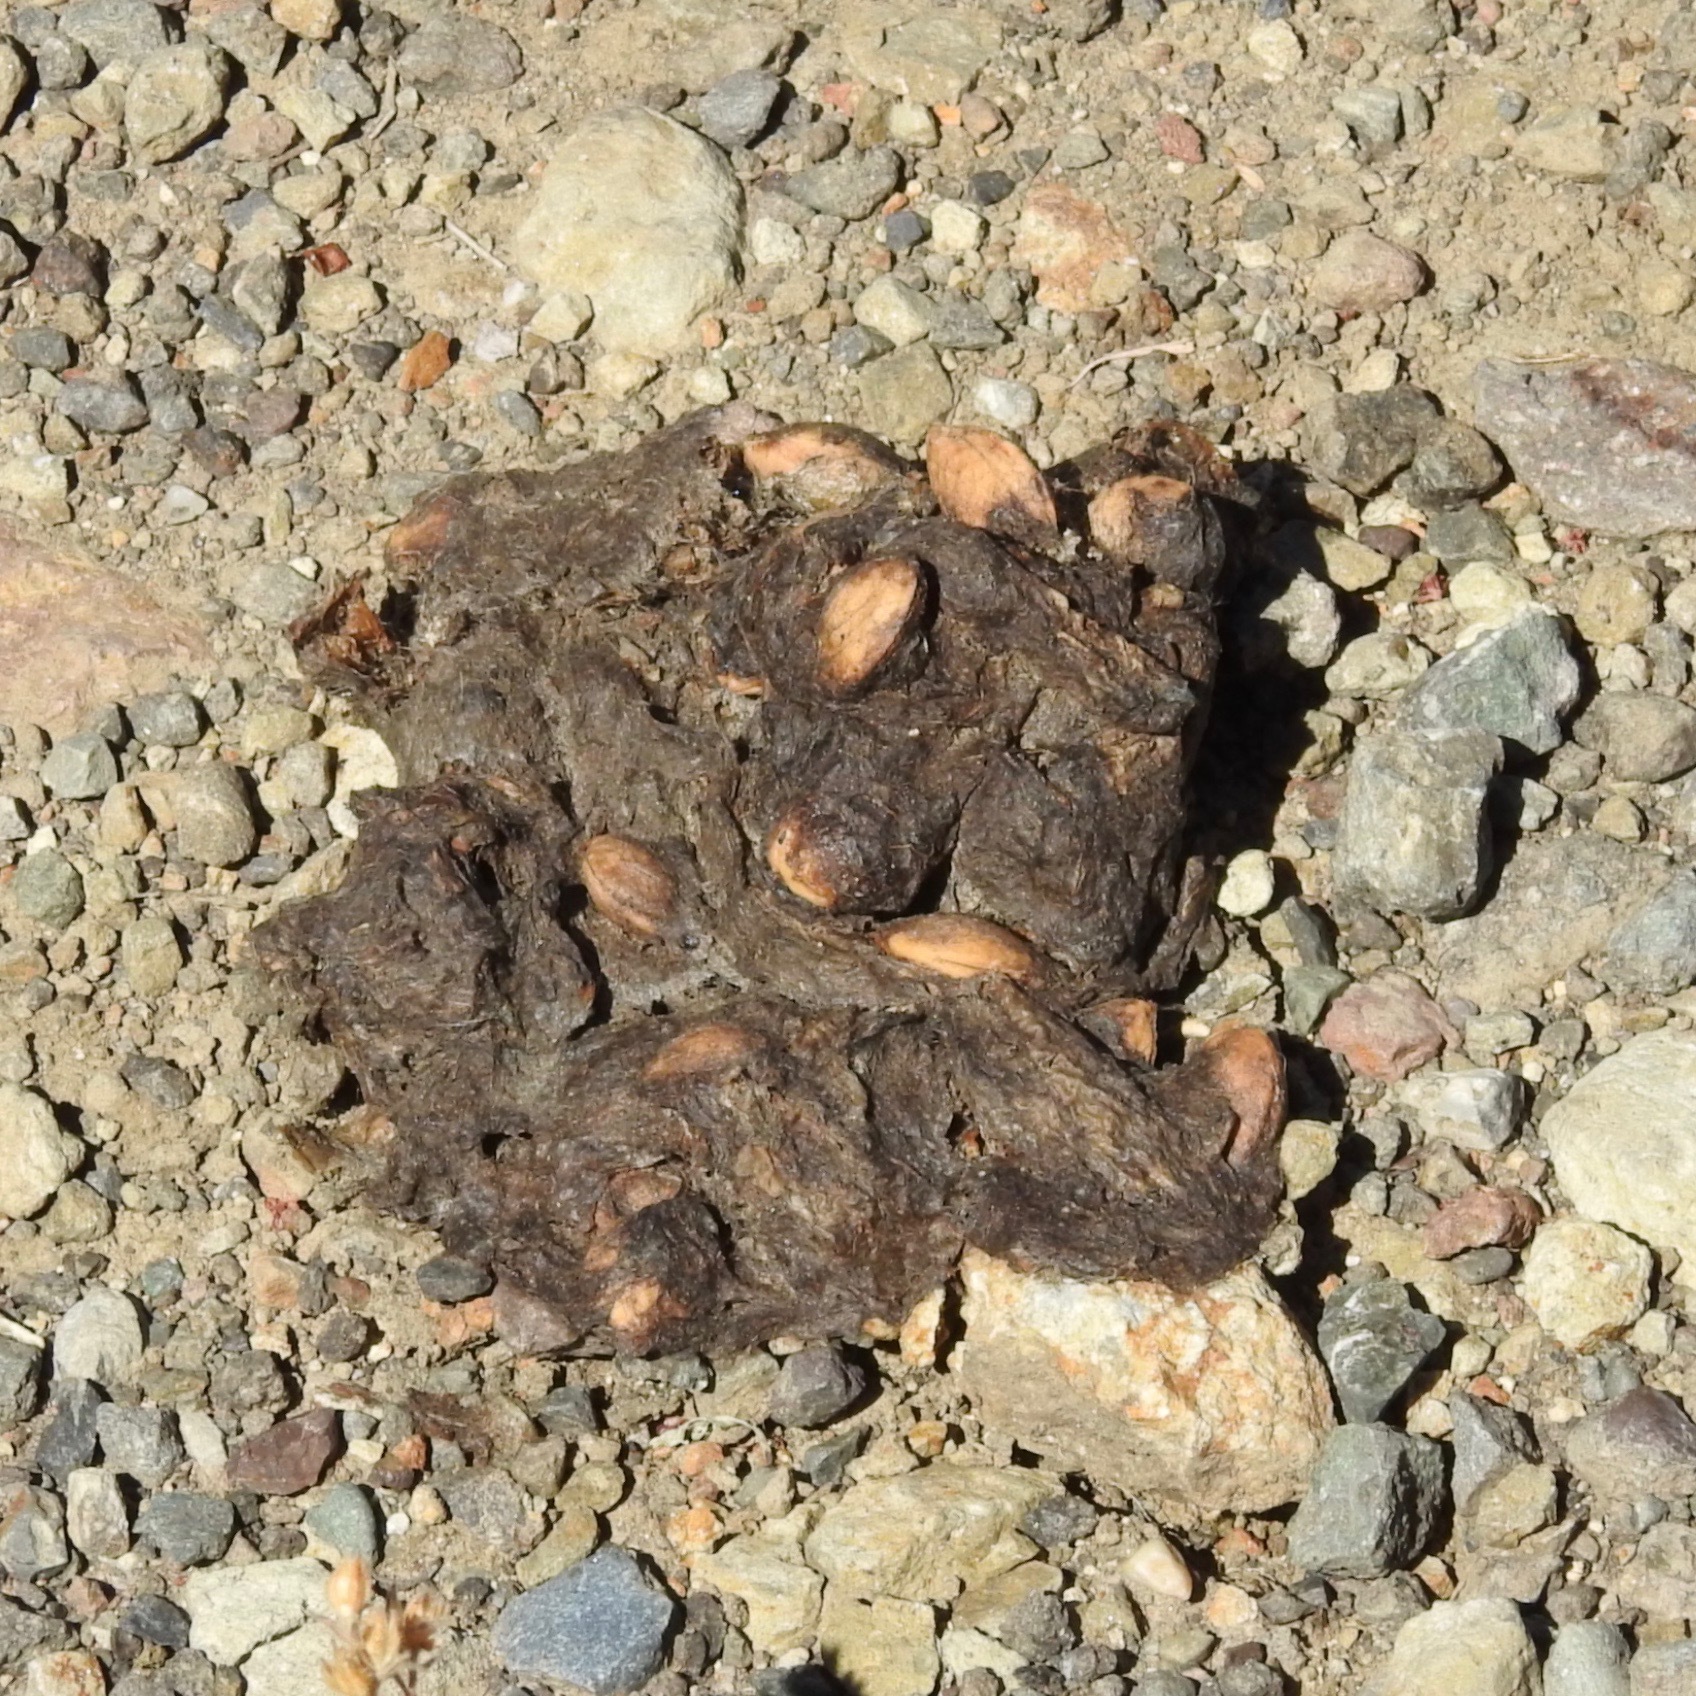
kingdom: Animalia
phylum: Chordata
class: Mammalia
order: Carnivora
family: Ursidae
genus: Ursus
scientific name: Ursus americanus
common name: American black bear
